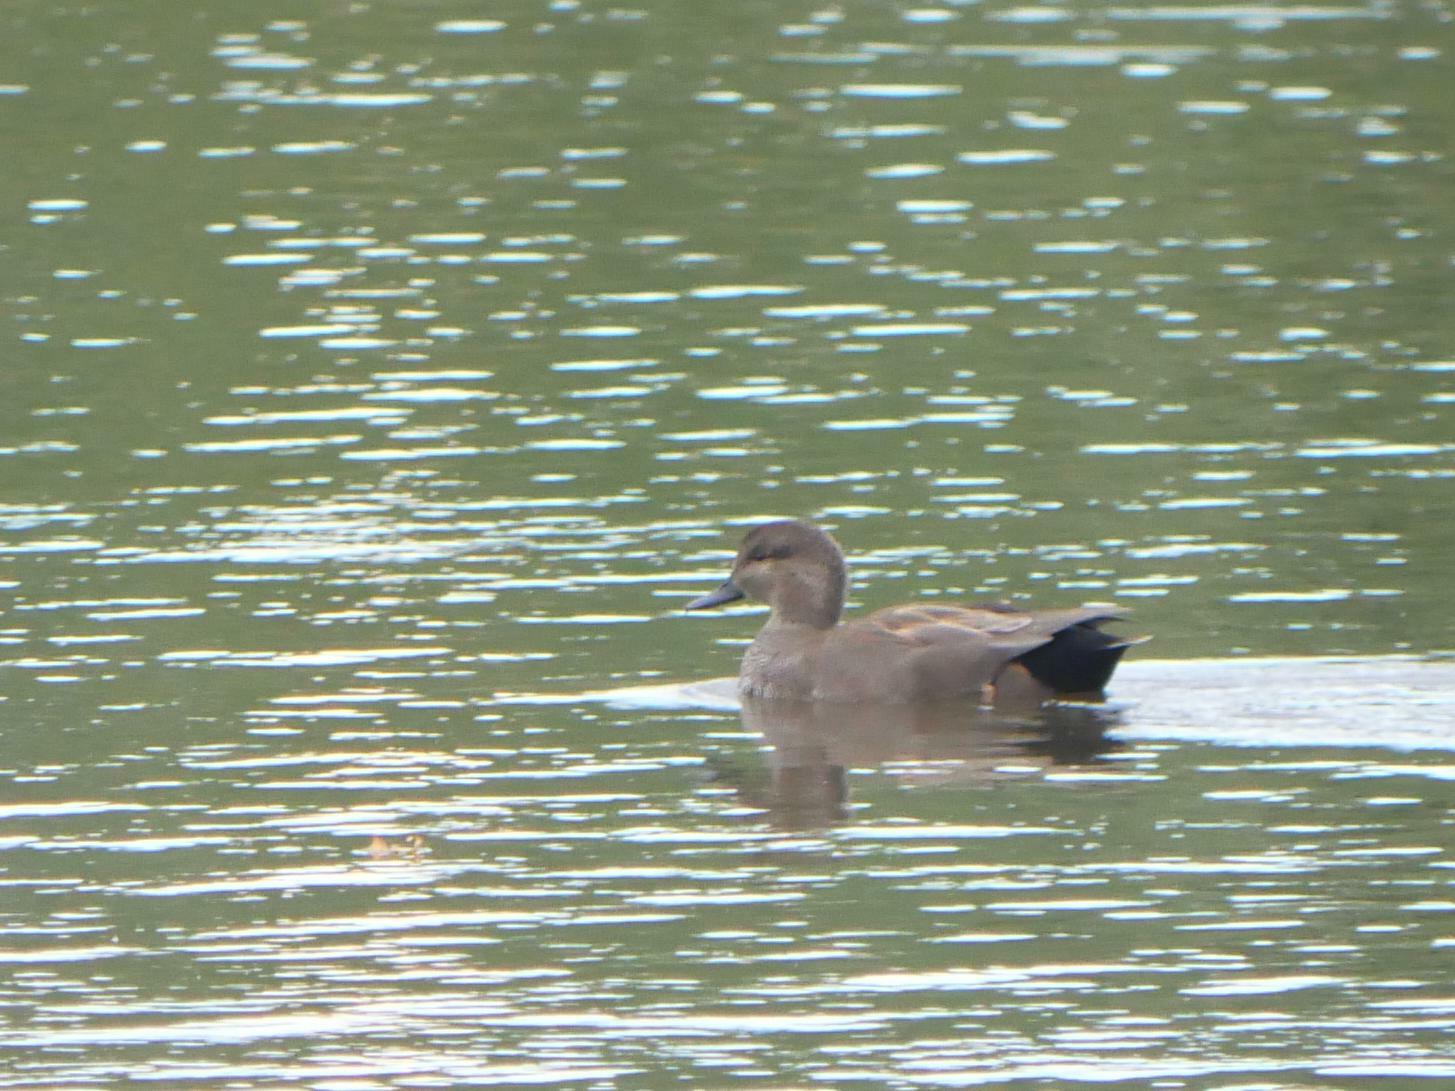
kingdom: Animalia
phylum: Chordata
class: Aves
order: Anseriformes
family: Anatidae
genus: Mareca
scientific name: Mareca strepera
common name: Gadwall
